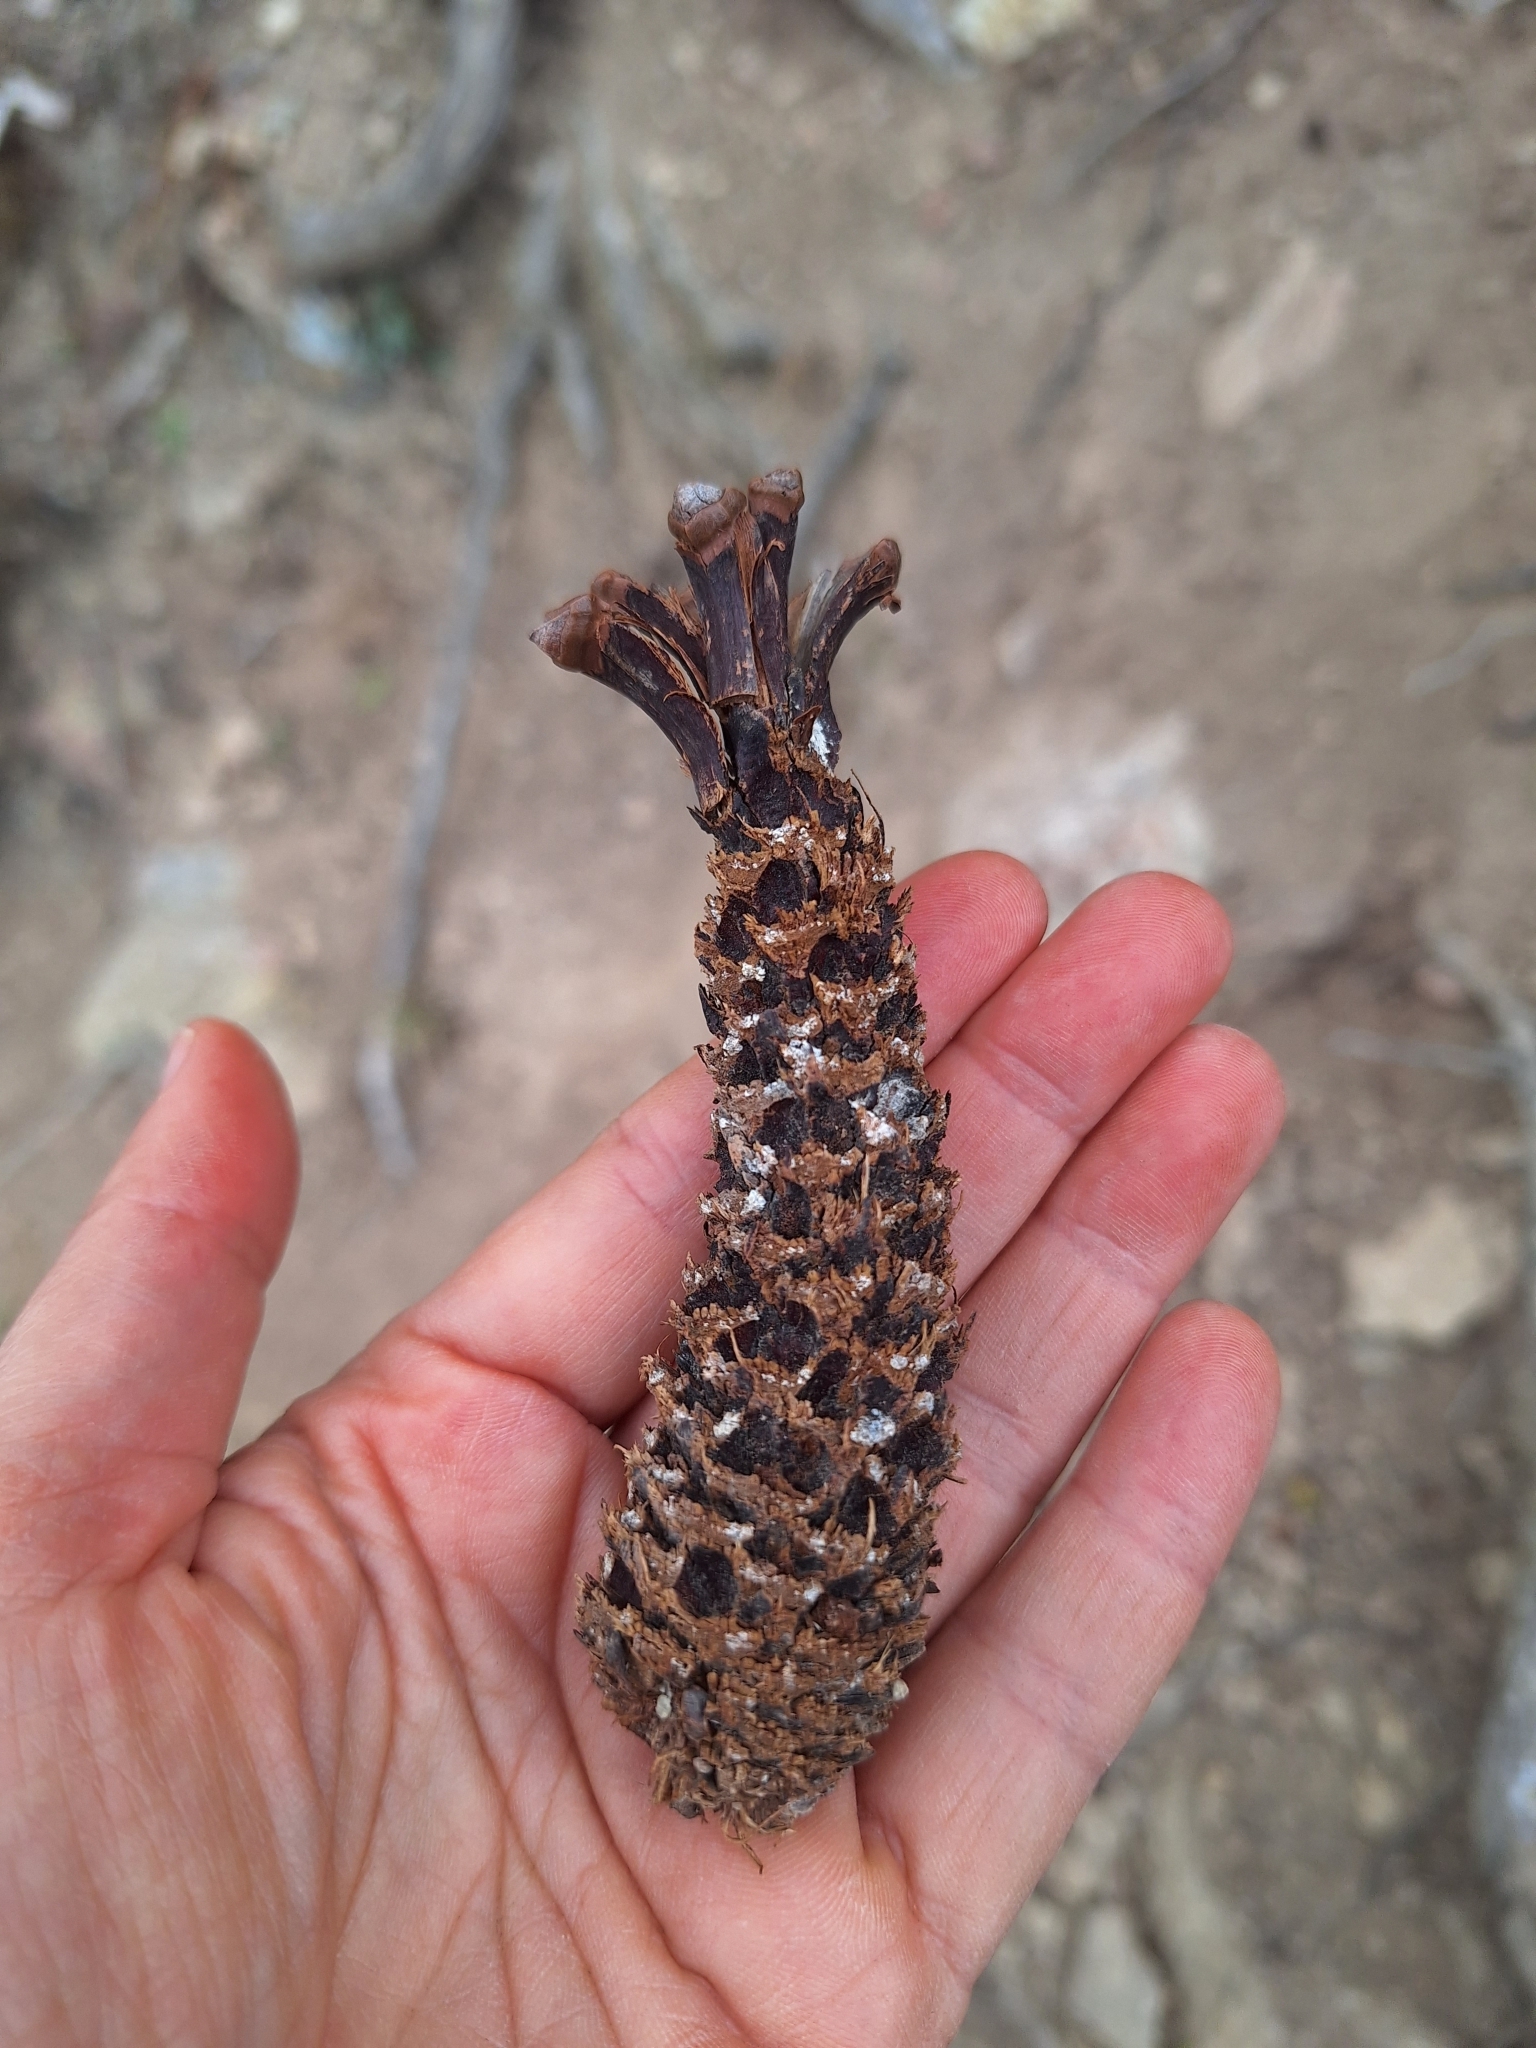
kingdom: Animalia
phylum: Chordata
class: Mammalia
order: Rodentia
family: Sciuridae
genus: Sciurus
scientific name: Sciurus vulgaris
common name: Eurasian red squirrel
